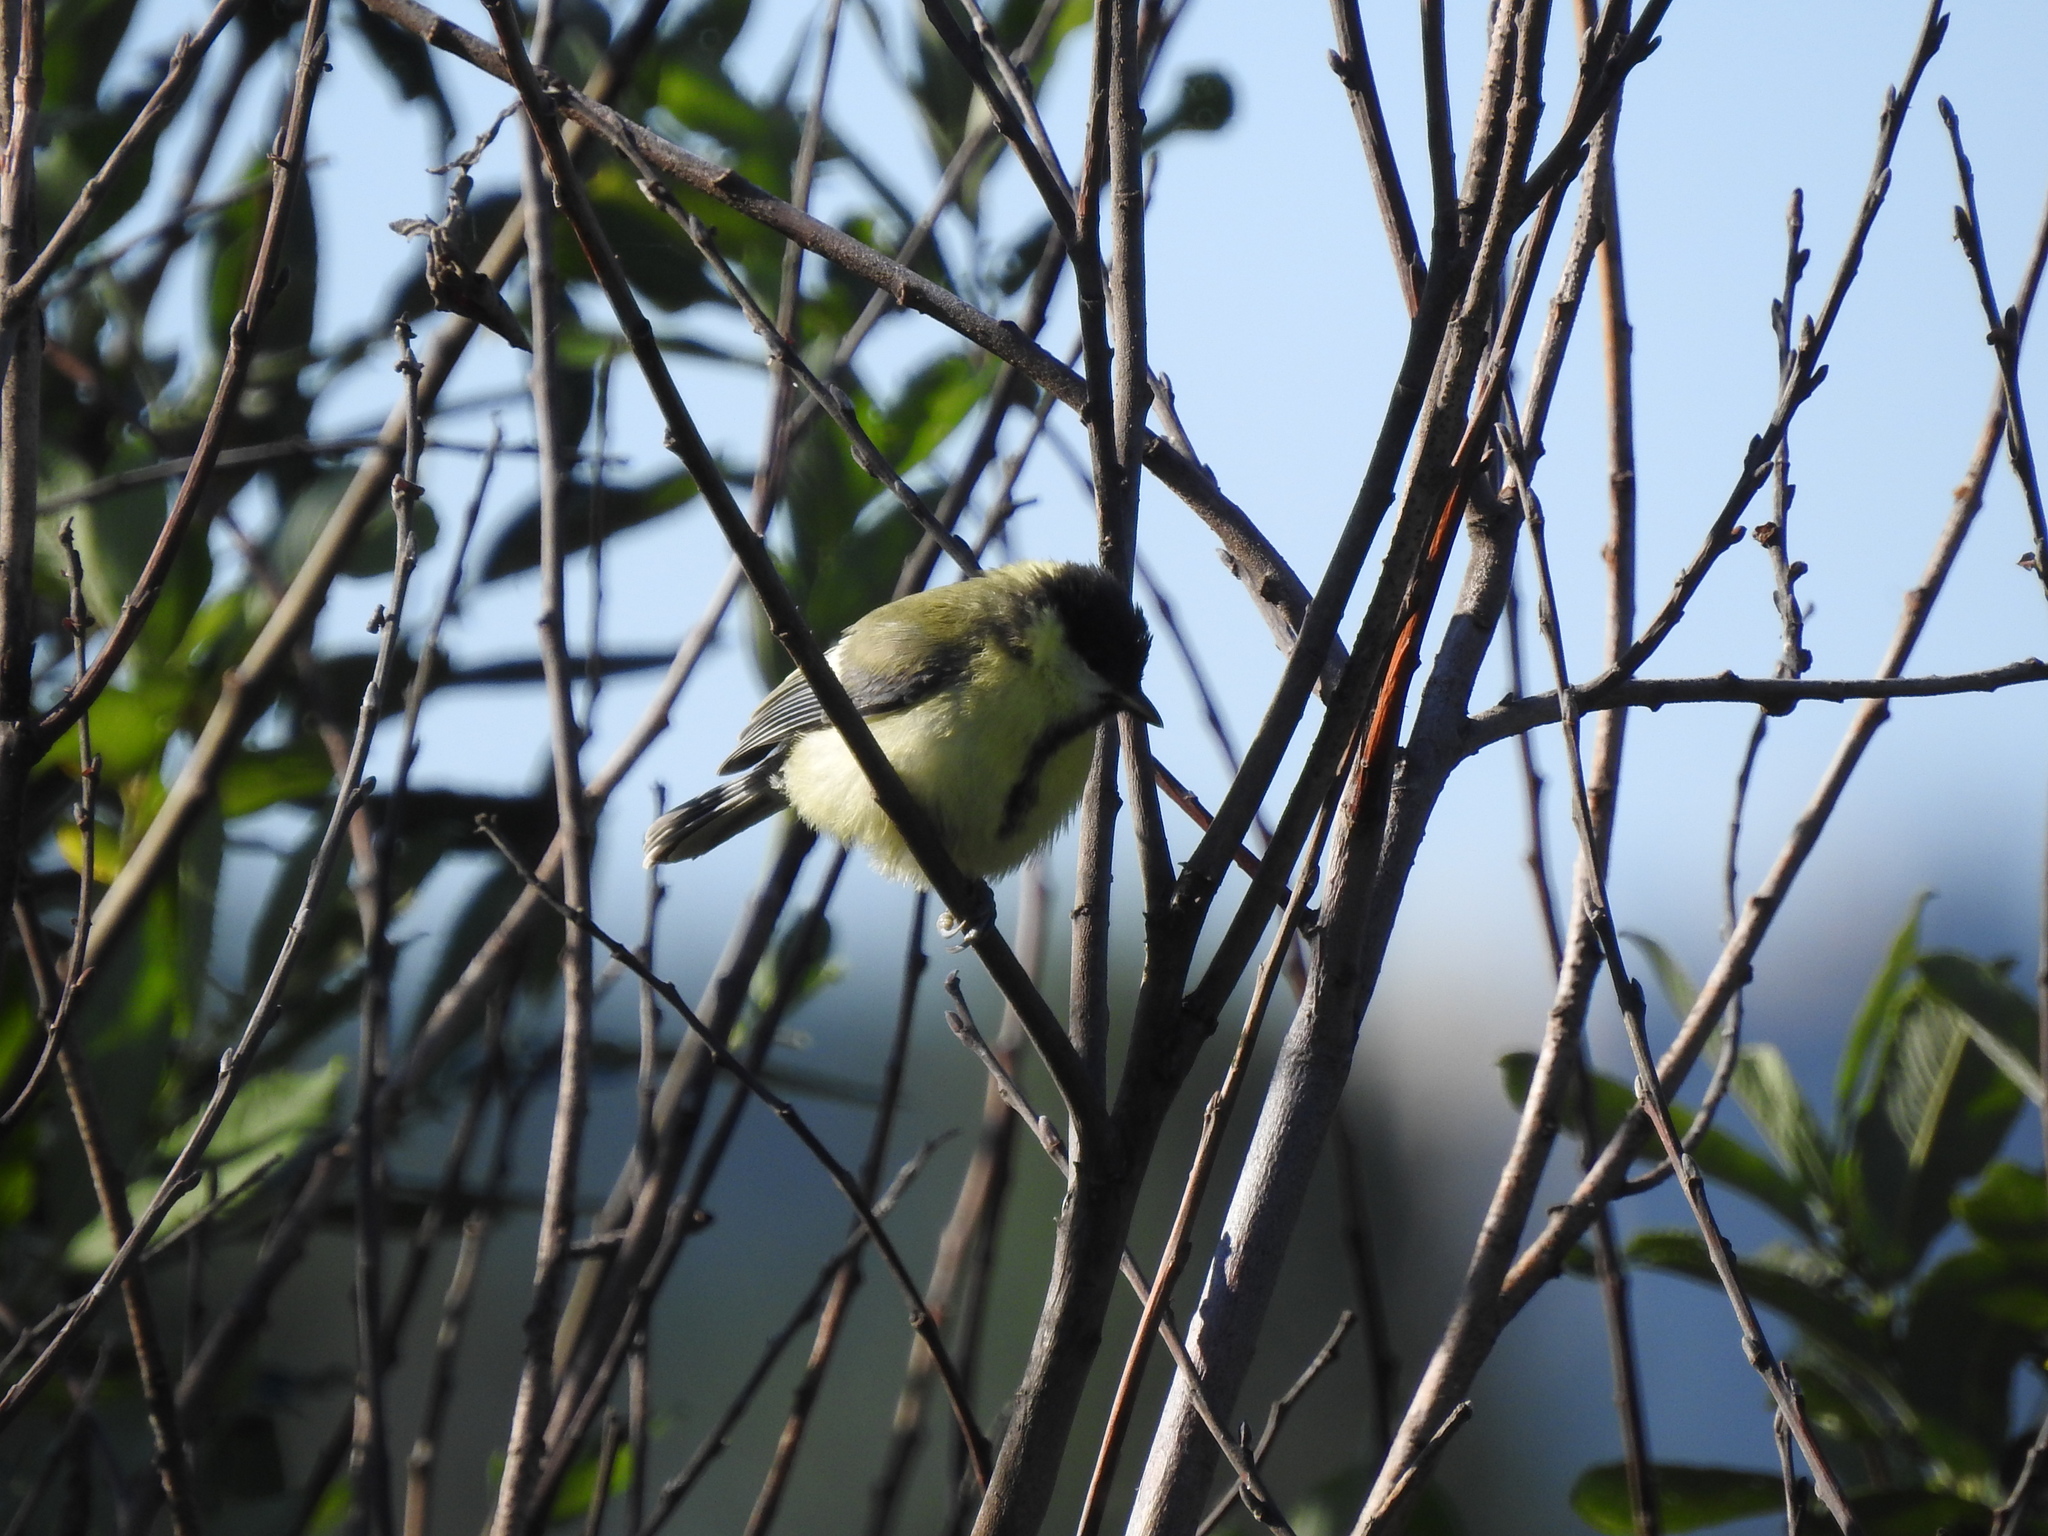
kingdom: Animalia
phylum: Chordata
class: Aves
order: Passeriformes
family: Paridae
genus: Parus
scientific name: Parus major
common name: Great tit
